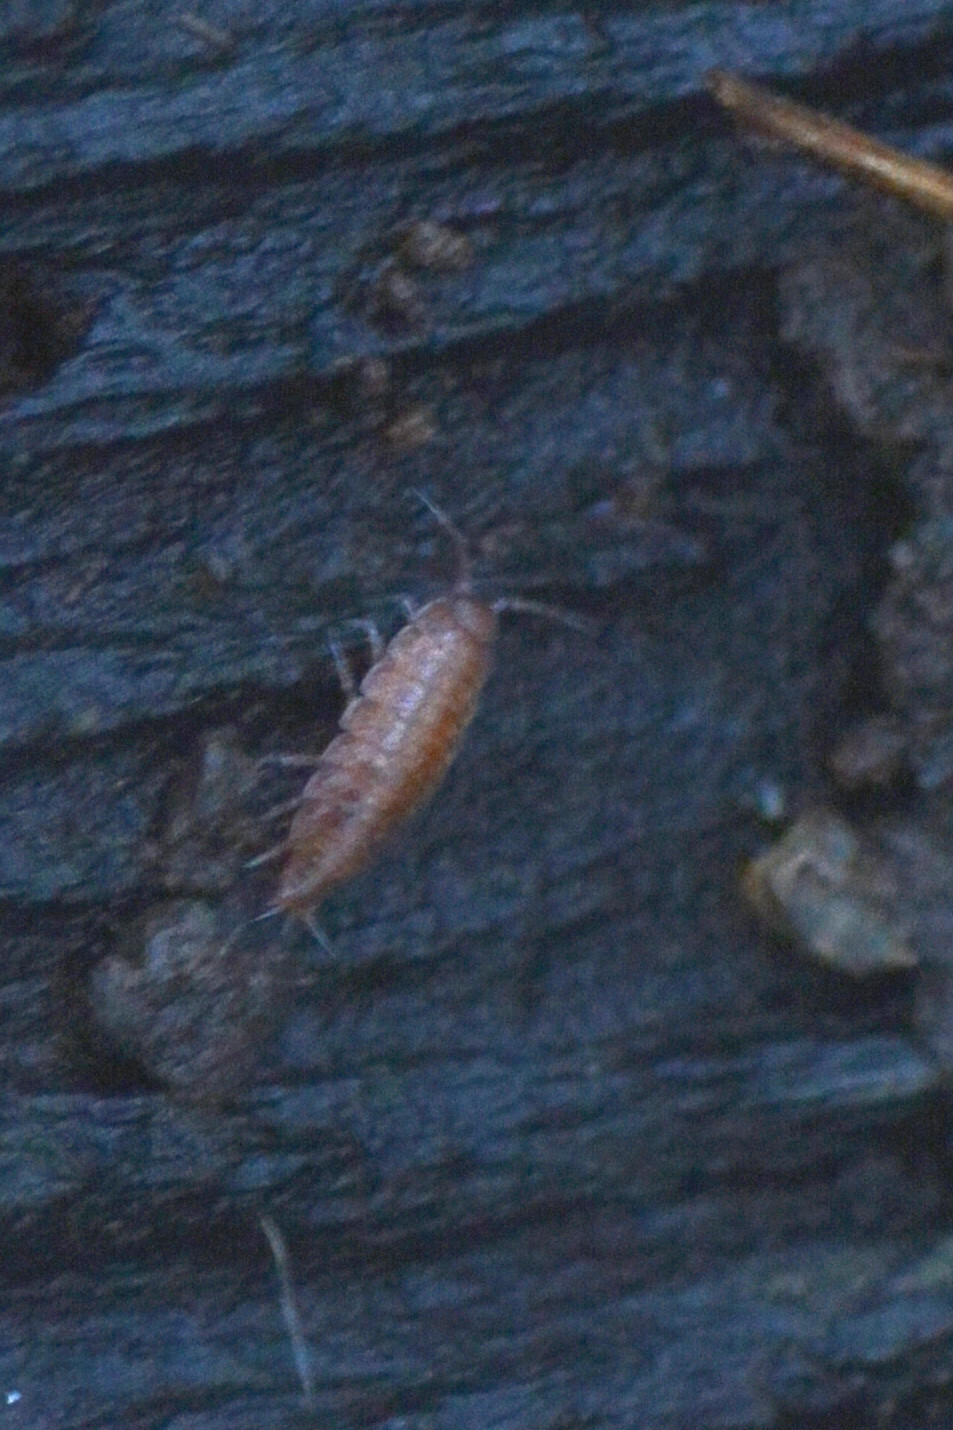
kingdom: Animalia
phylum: Arthropoda
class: Malacostraca
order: Isopoda
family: Trichoniscidae
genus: Trichoniscus
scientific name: Trichoniscus
